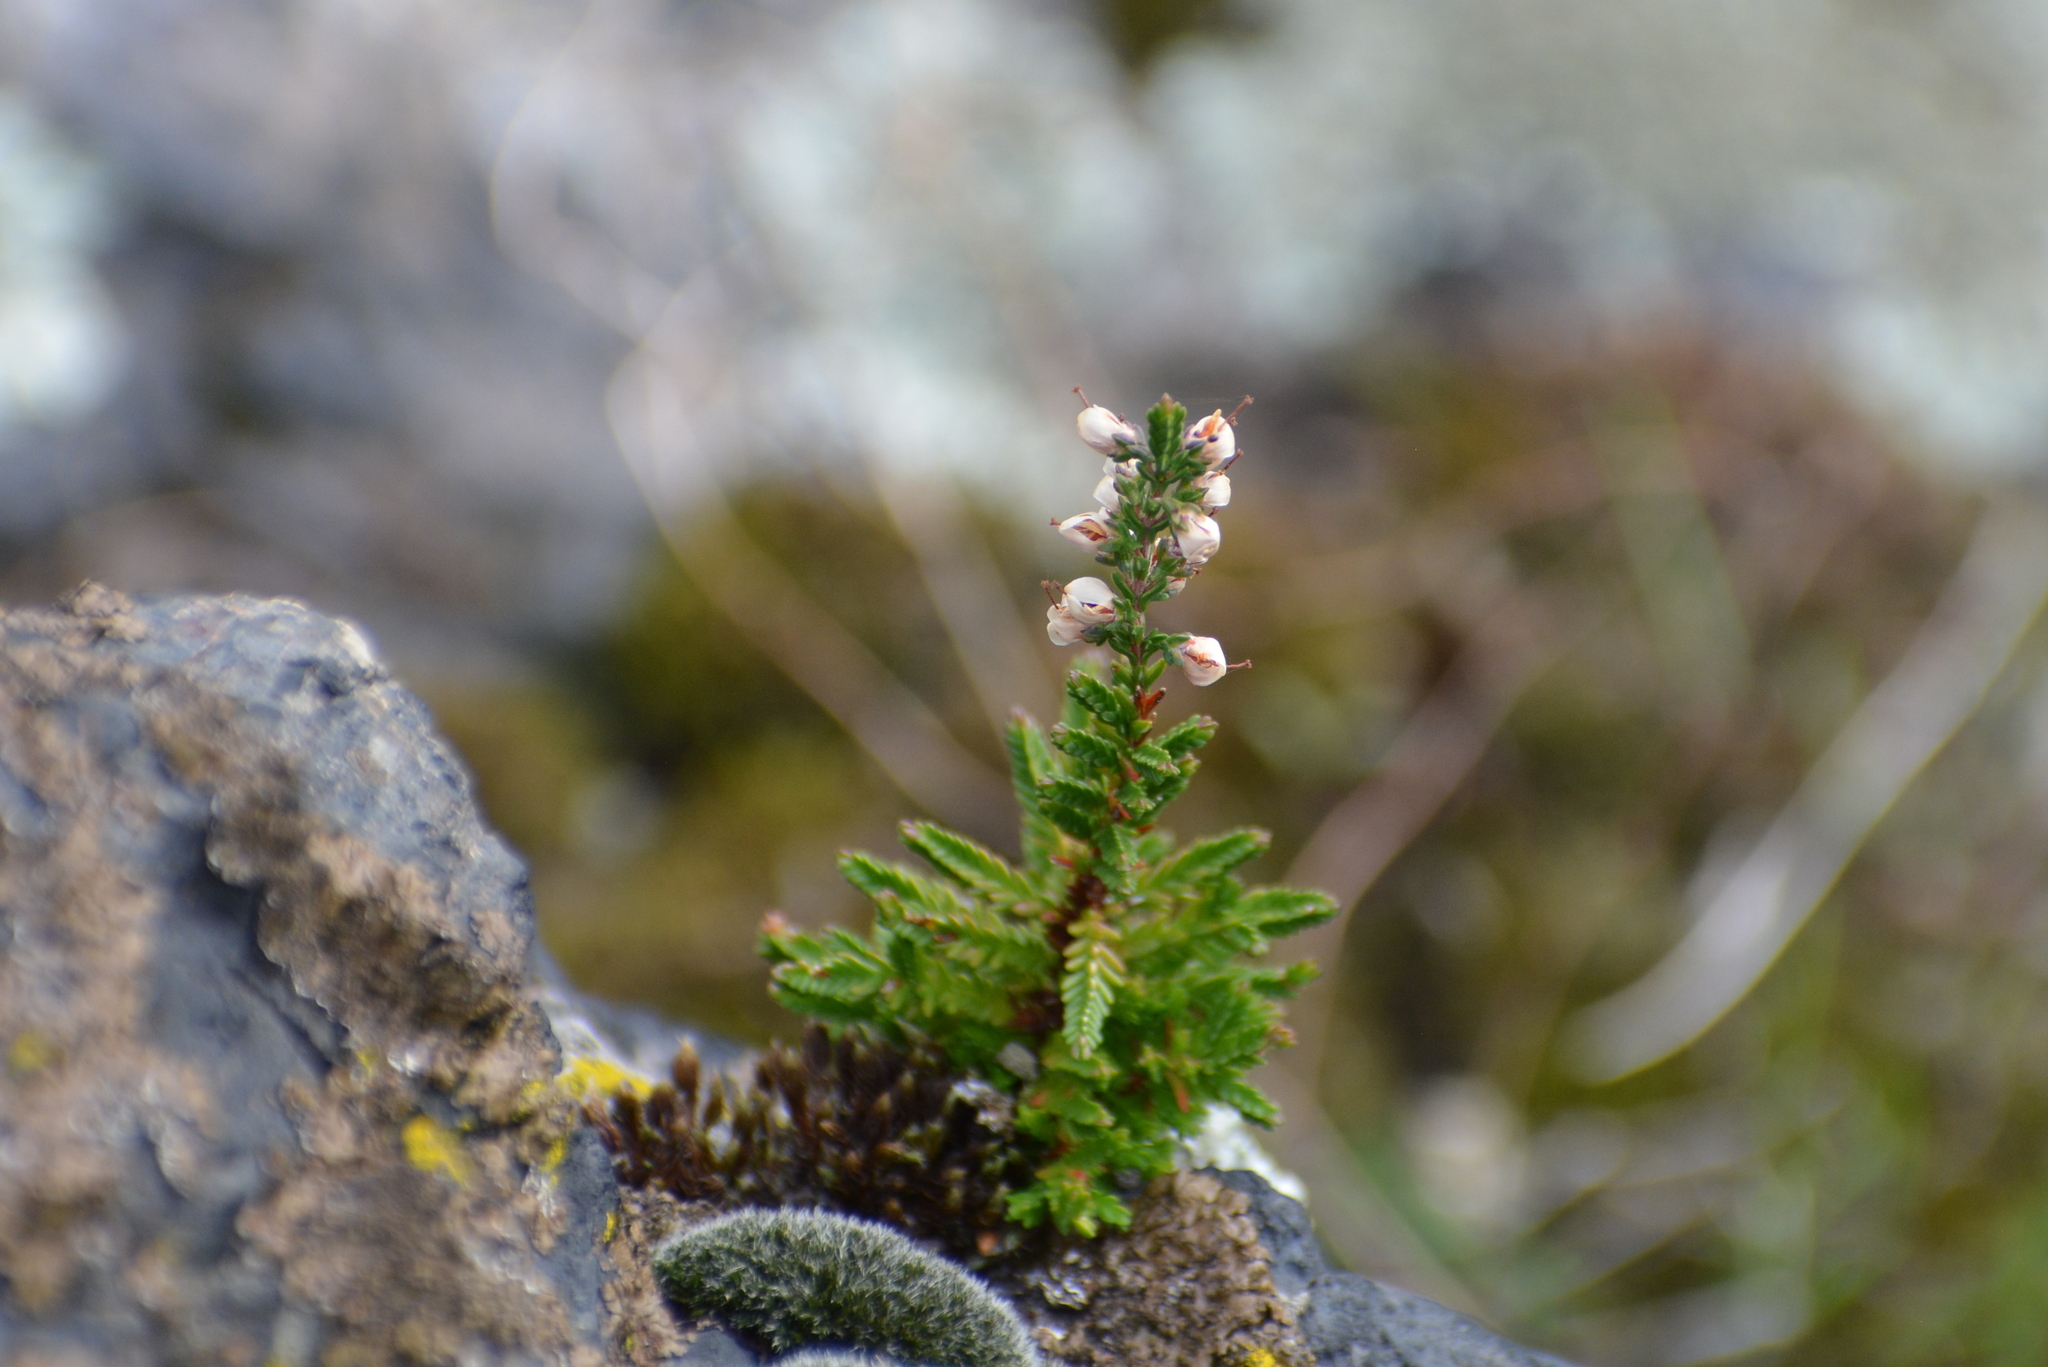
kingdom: Plantae
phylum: Tracheophyta
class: Magnoliopsida
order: Ericales
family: Ericaceae
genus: Calluna
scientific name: Calluna vulgaris
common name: Heather
